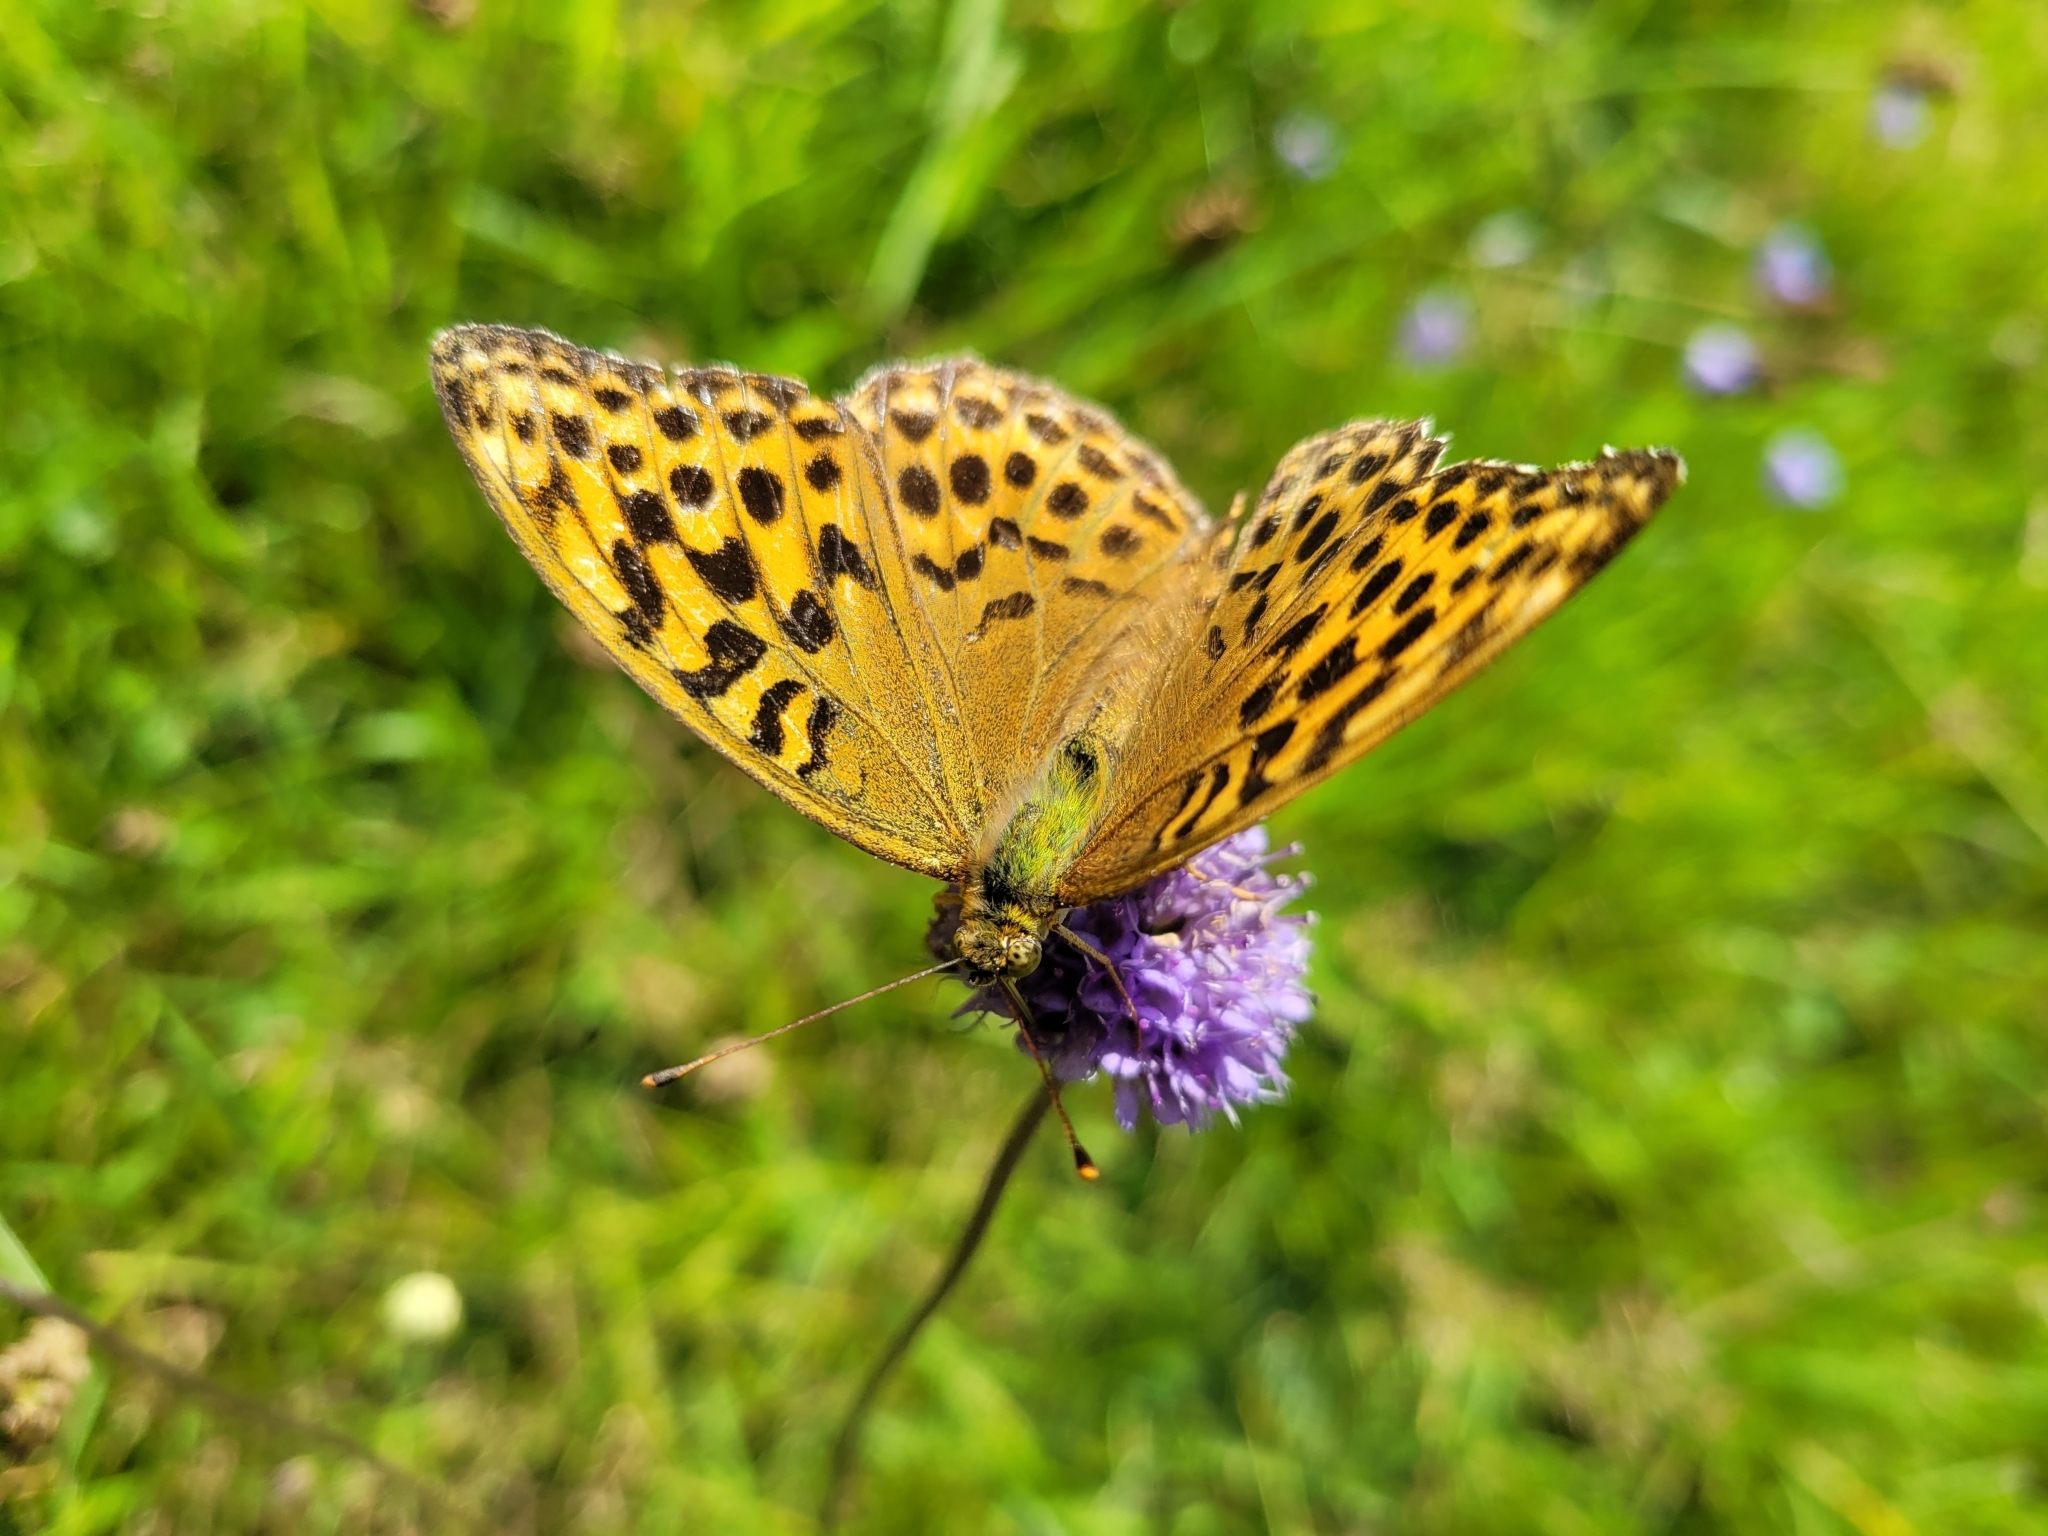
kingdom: Animalia
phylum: Arthropoda
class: Insecta
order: Lepidoptera
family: Nymphalidae
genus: Argynnis
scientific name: Argynnis paphia
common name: Silver-washed fritillary
